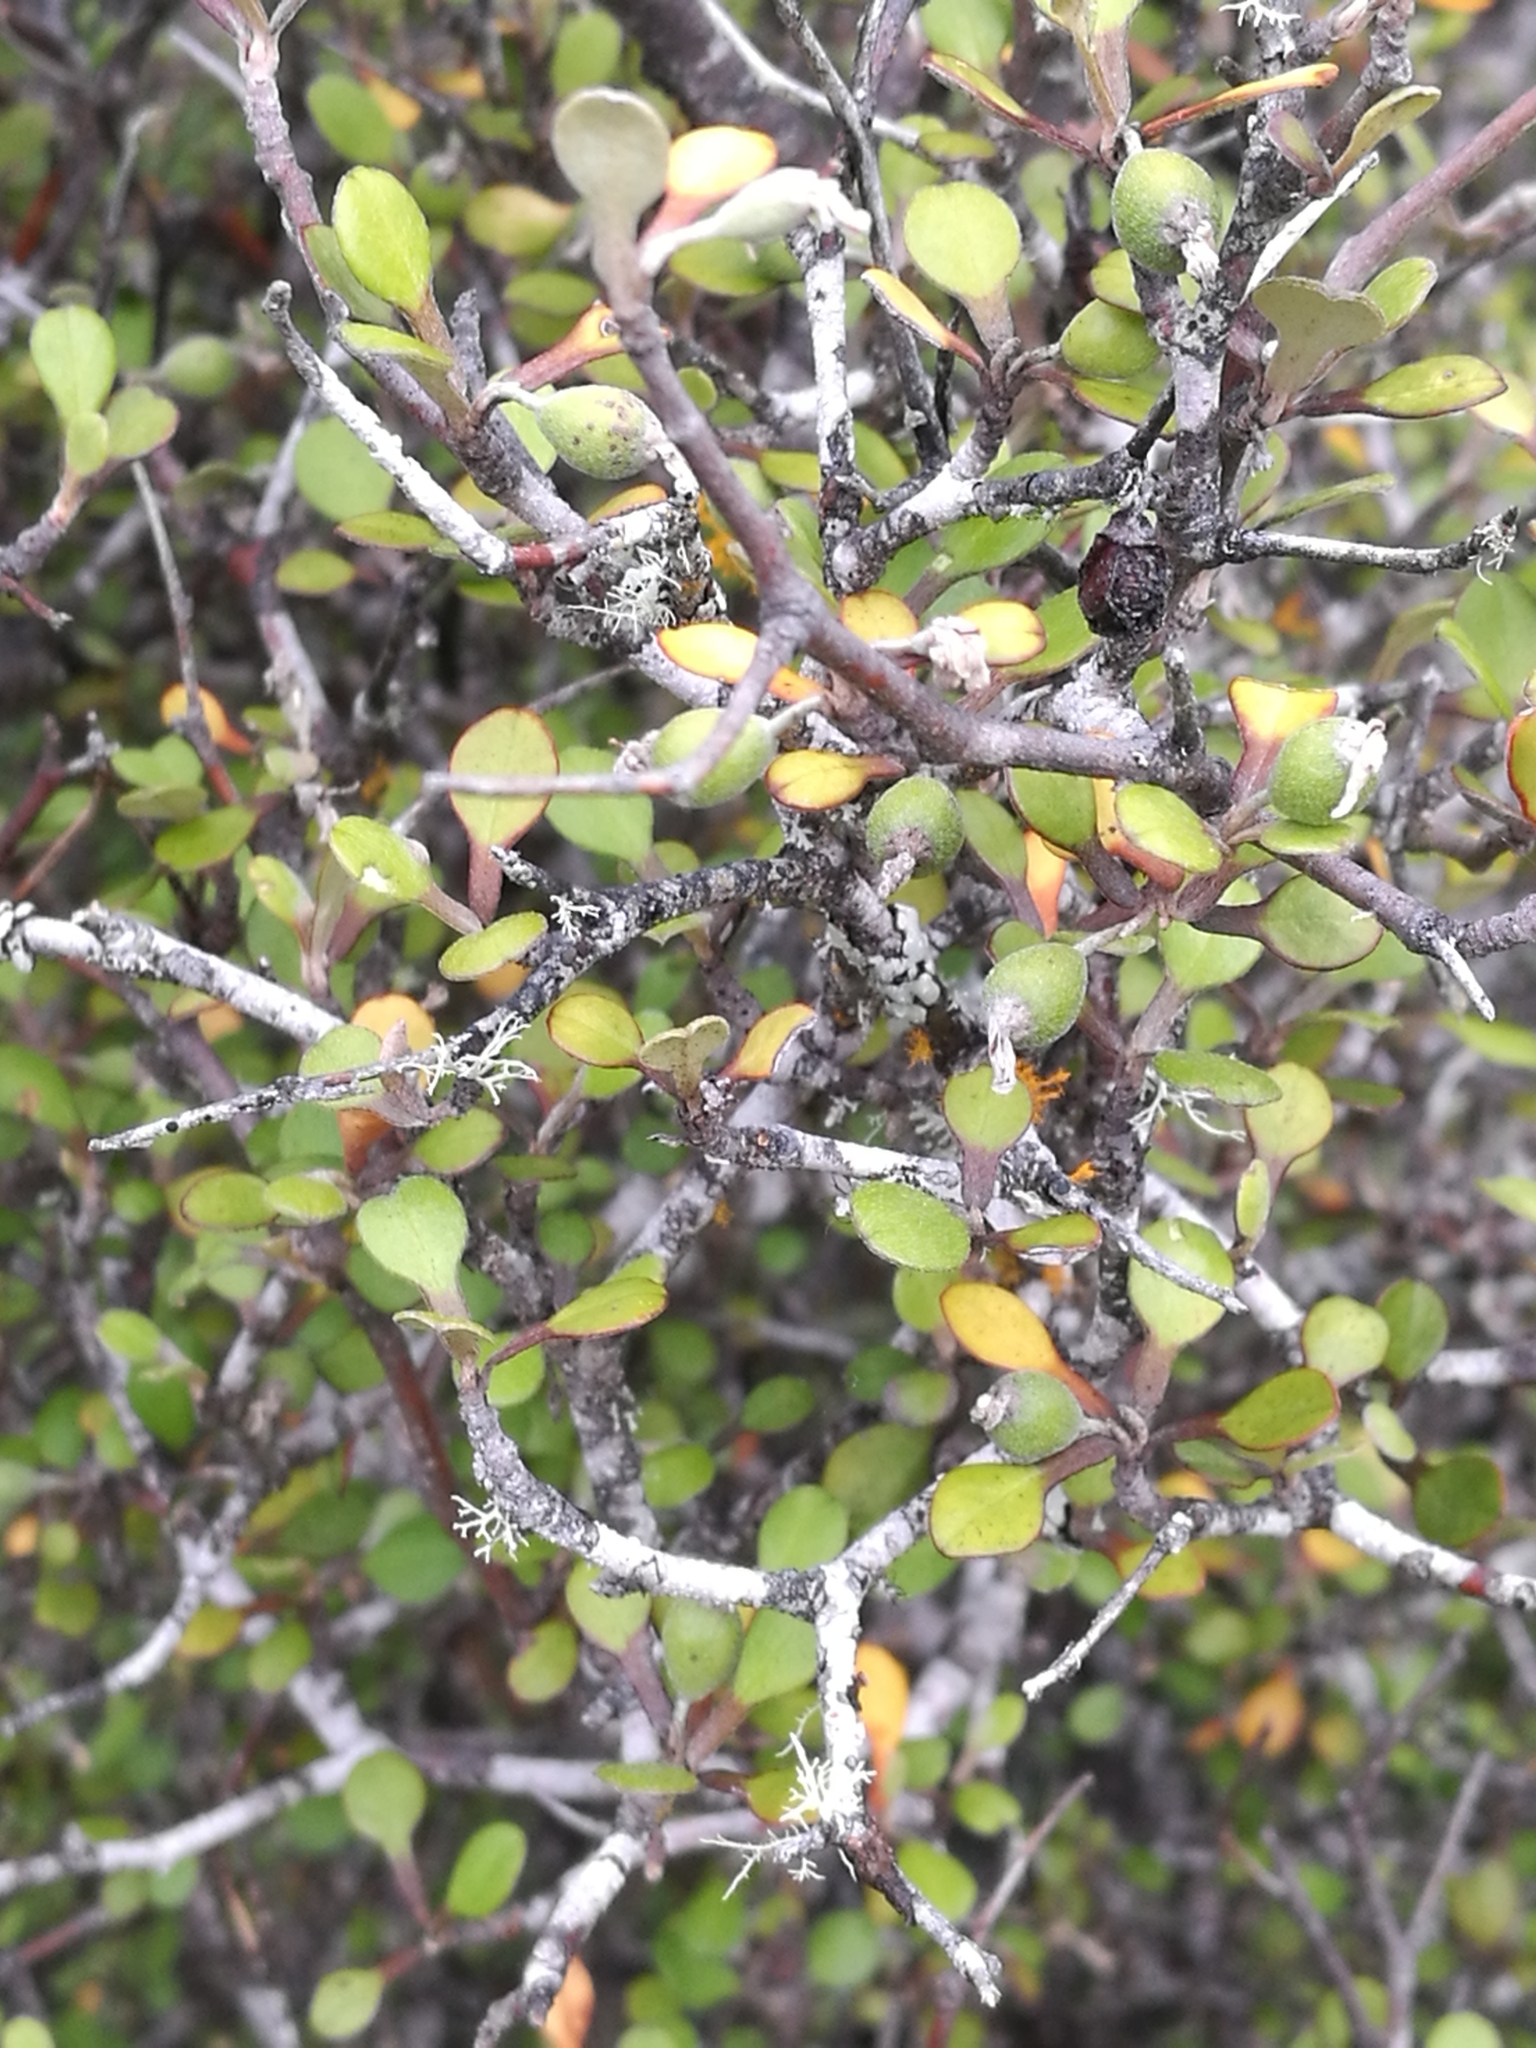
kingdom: Plantae
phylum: Tracheophyta
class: Magnoliopsida
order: Asterales
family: Argophyllaceae
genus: Corokia
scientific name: Corokia cotoneaster
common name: Wire nettingbush
